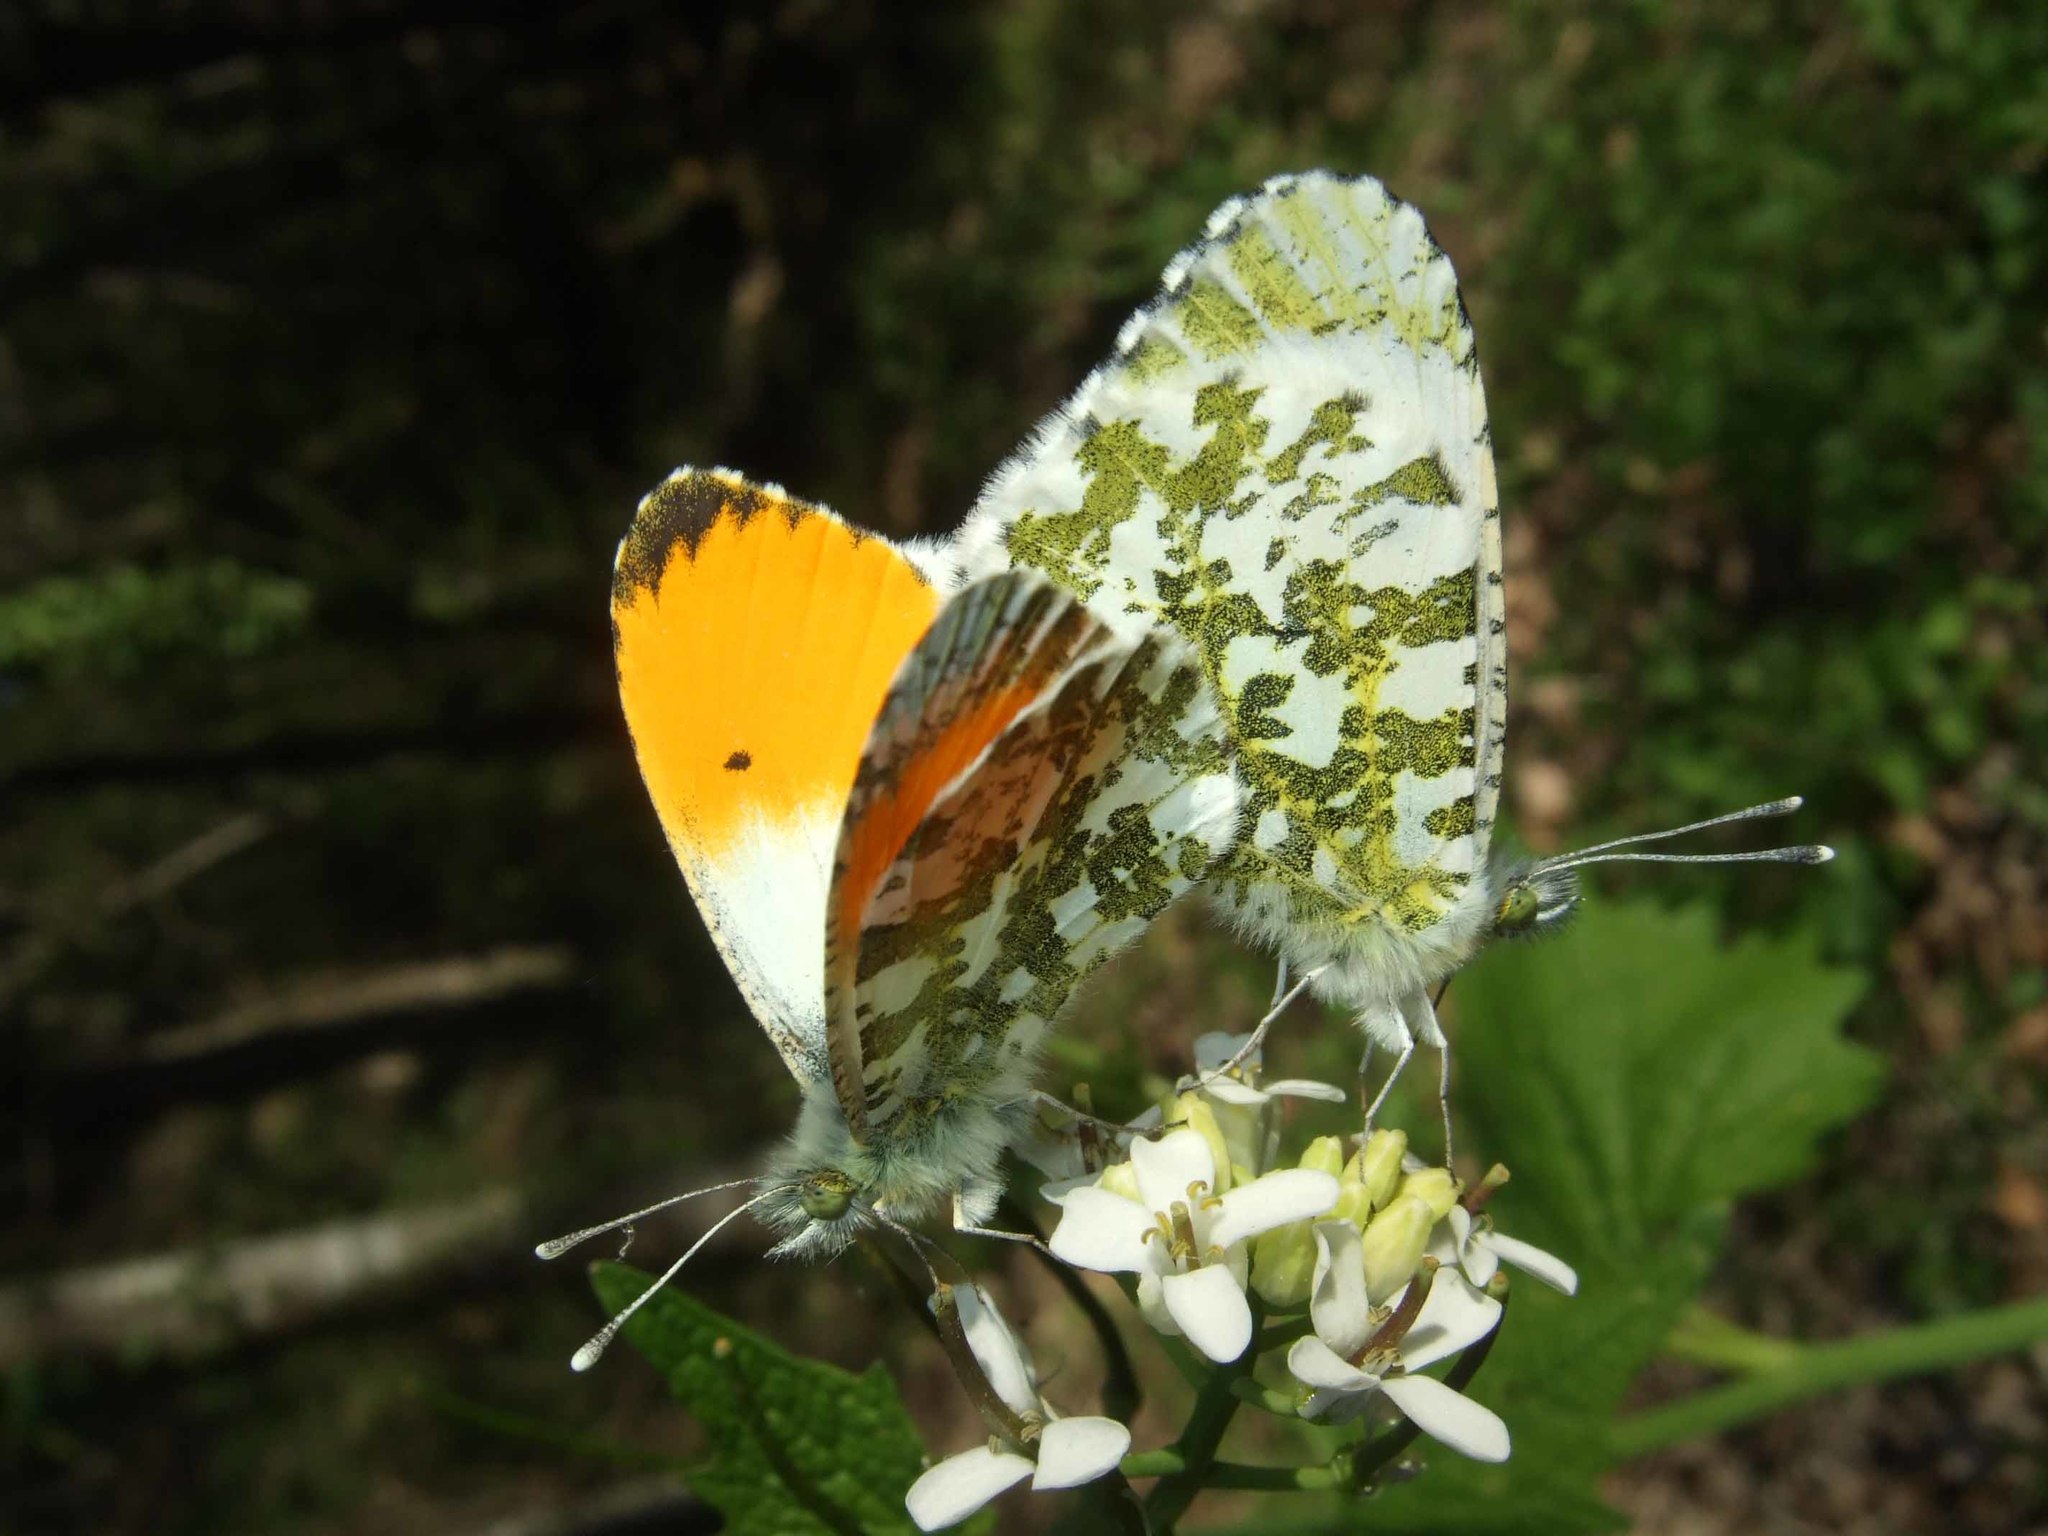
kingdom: Animalia
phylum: Arthropoda
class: Insecta
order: Lepidoptera
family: Pieridae
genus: Anthocharis
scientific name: Anthocharis cardamines
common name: Orange-tip
